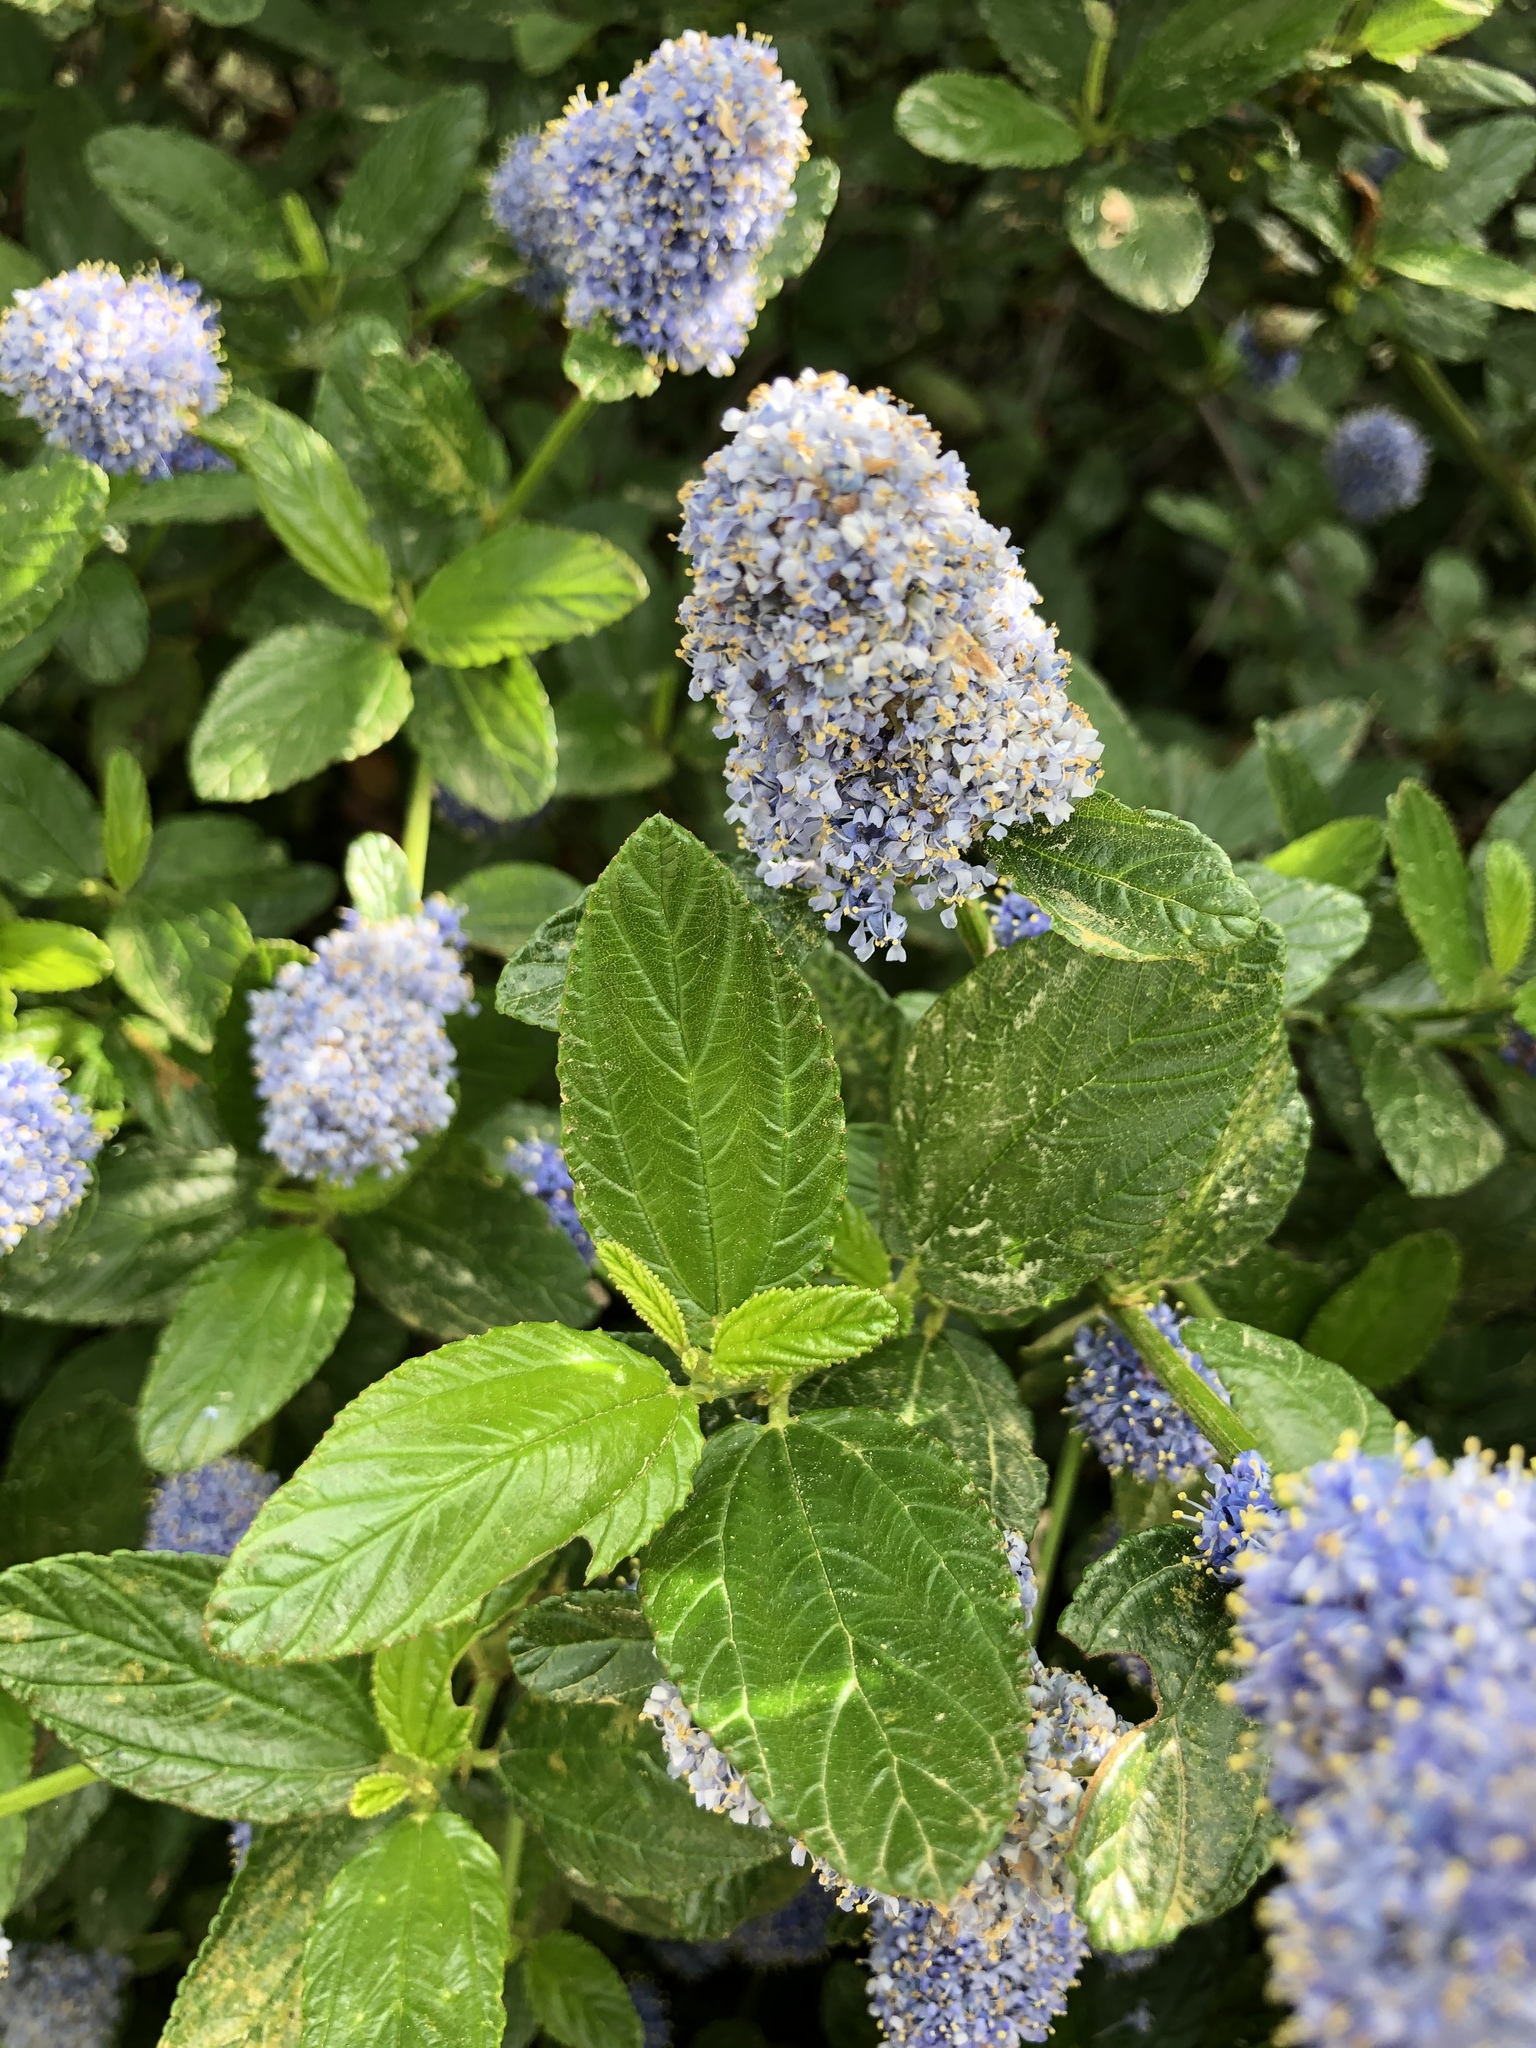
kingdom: Plantae
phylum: Tracheophyta
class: Magnoliopsida
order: Rosales
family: Rhamnaceae
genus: Ceanothus
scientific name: Ceanothus thyrsiflorus
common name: California-lilac
